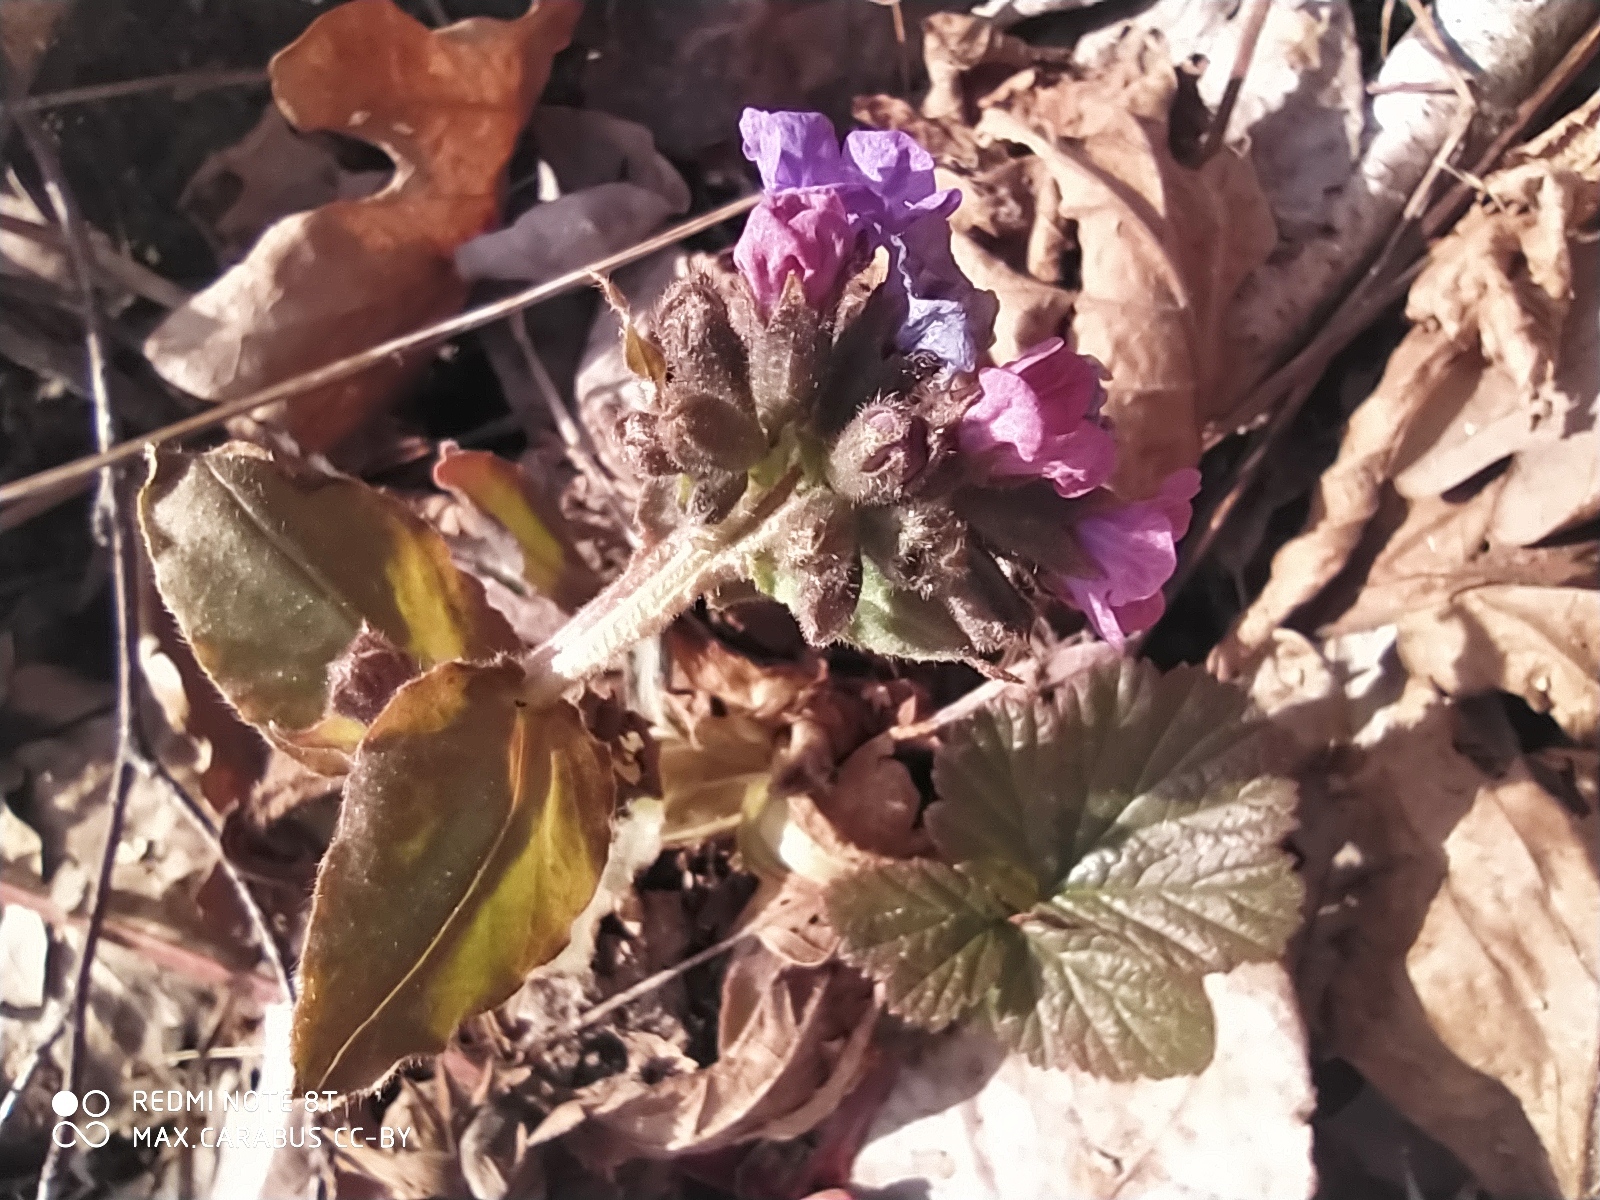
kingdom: Plantae
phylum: Tracheophyta
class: Magnoliopsida
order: Boraginales
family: Boraginaceae
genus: Pulmonaria
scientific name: Pulmonaria obscura
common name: Suffolk lungwort
